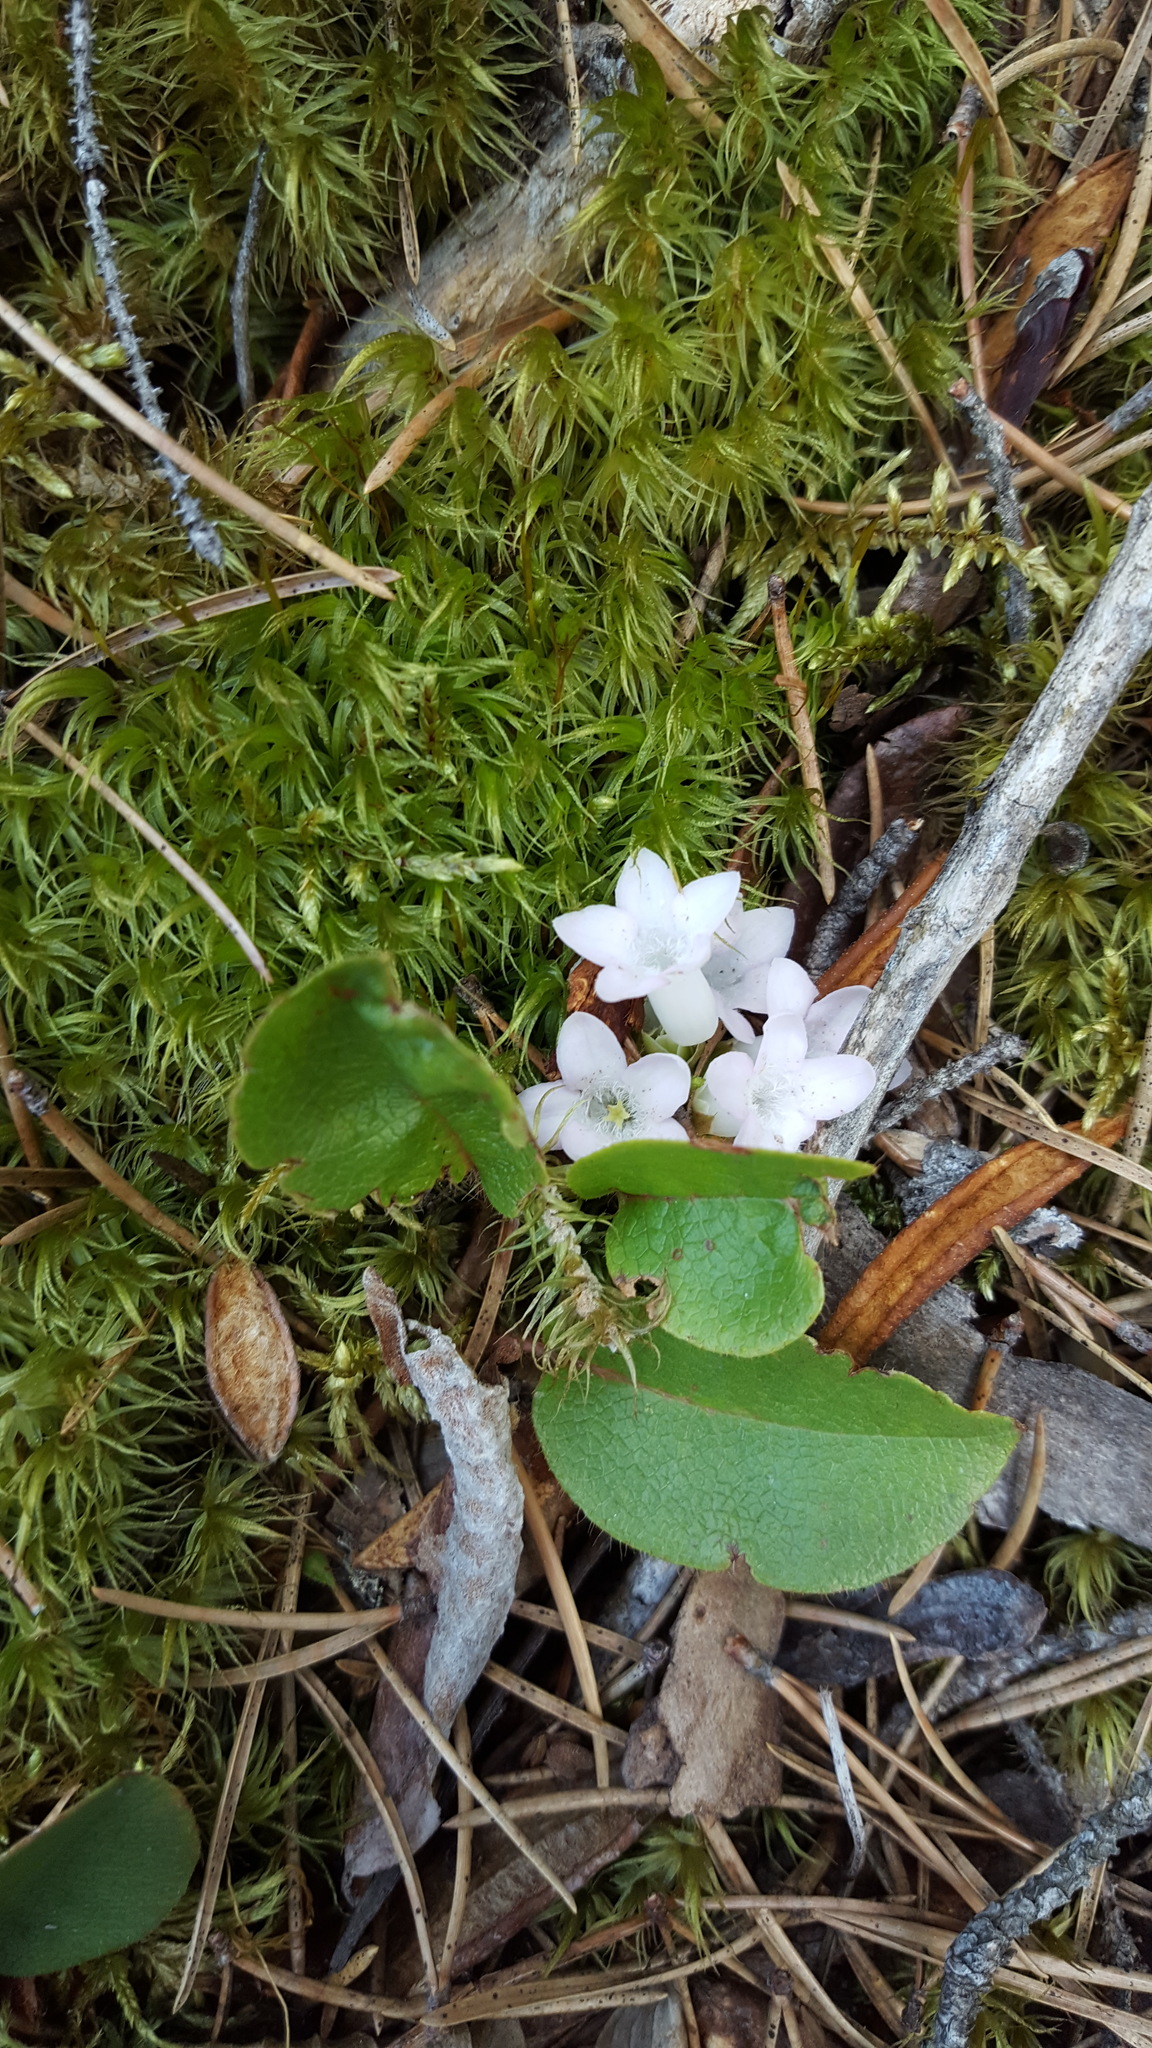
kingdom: Plantae
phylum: Tracheophyta
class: Magnoliopsida
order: Ericales
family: Ericaceae
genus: Epigaea
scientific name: Epigaea repens
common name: Gravelroot
